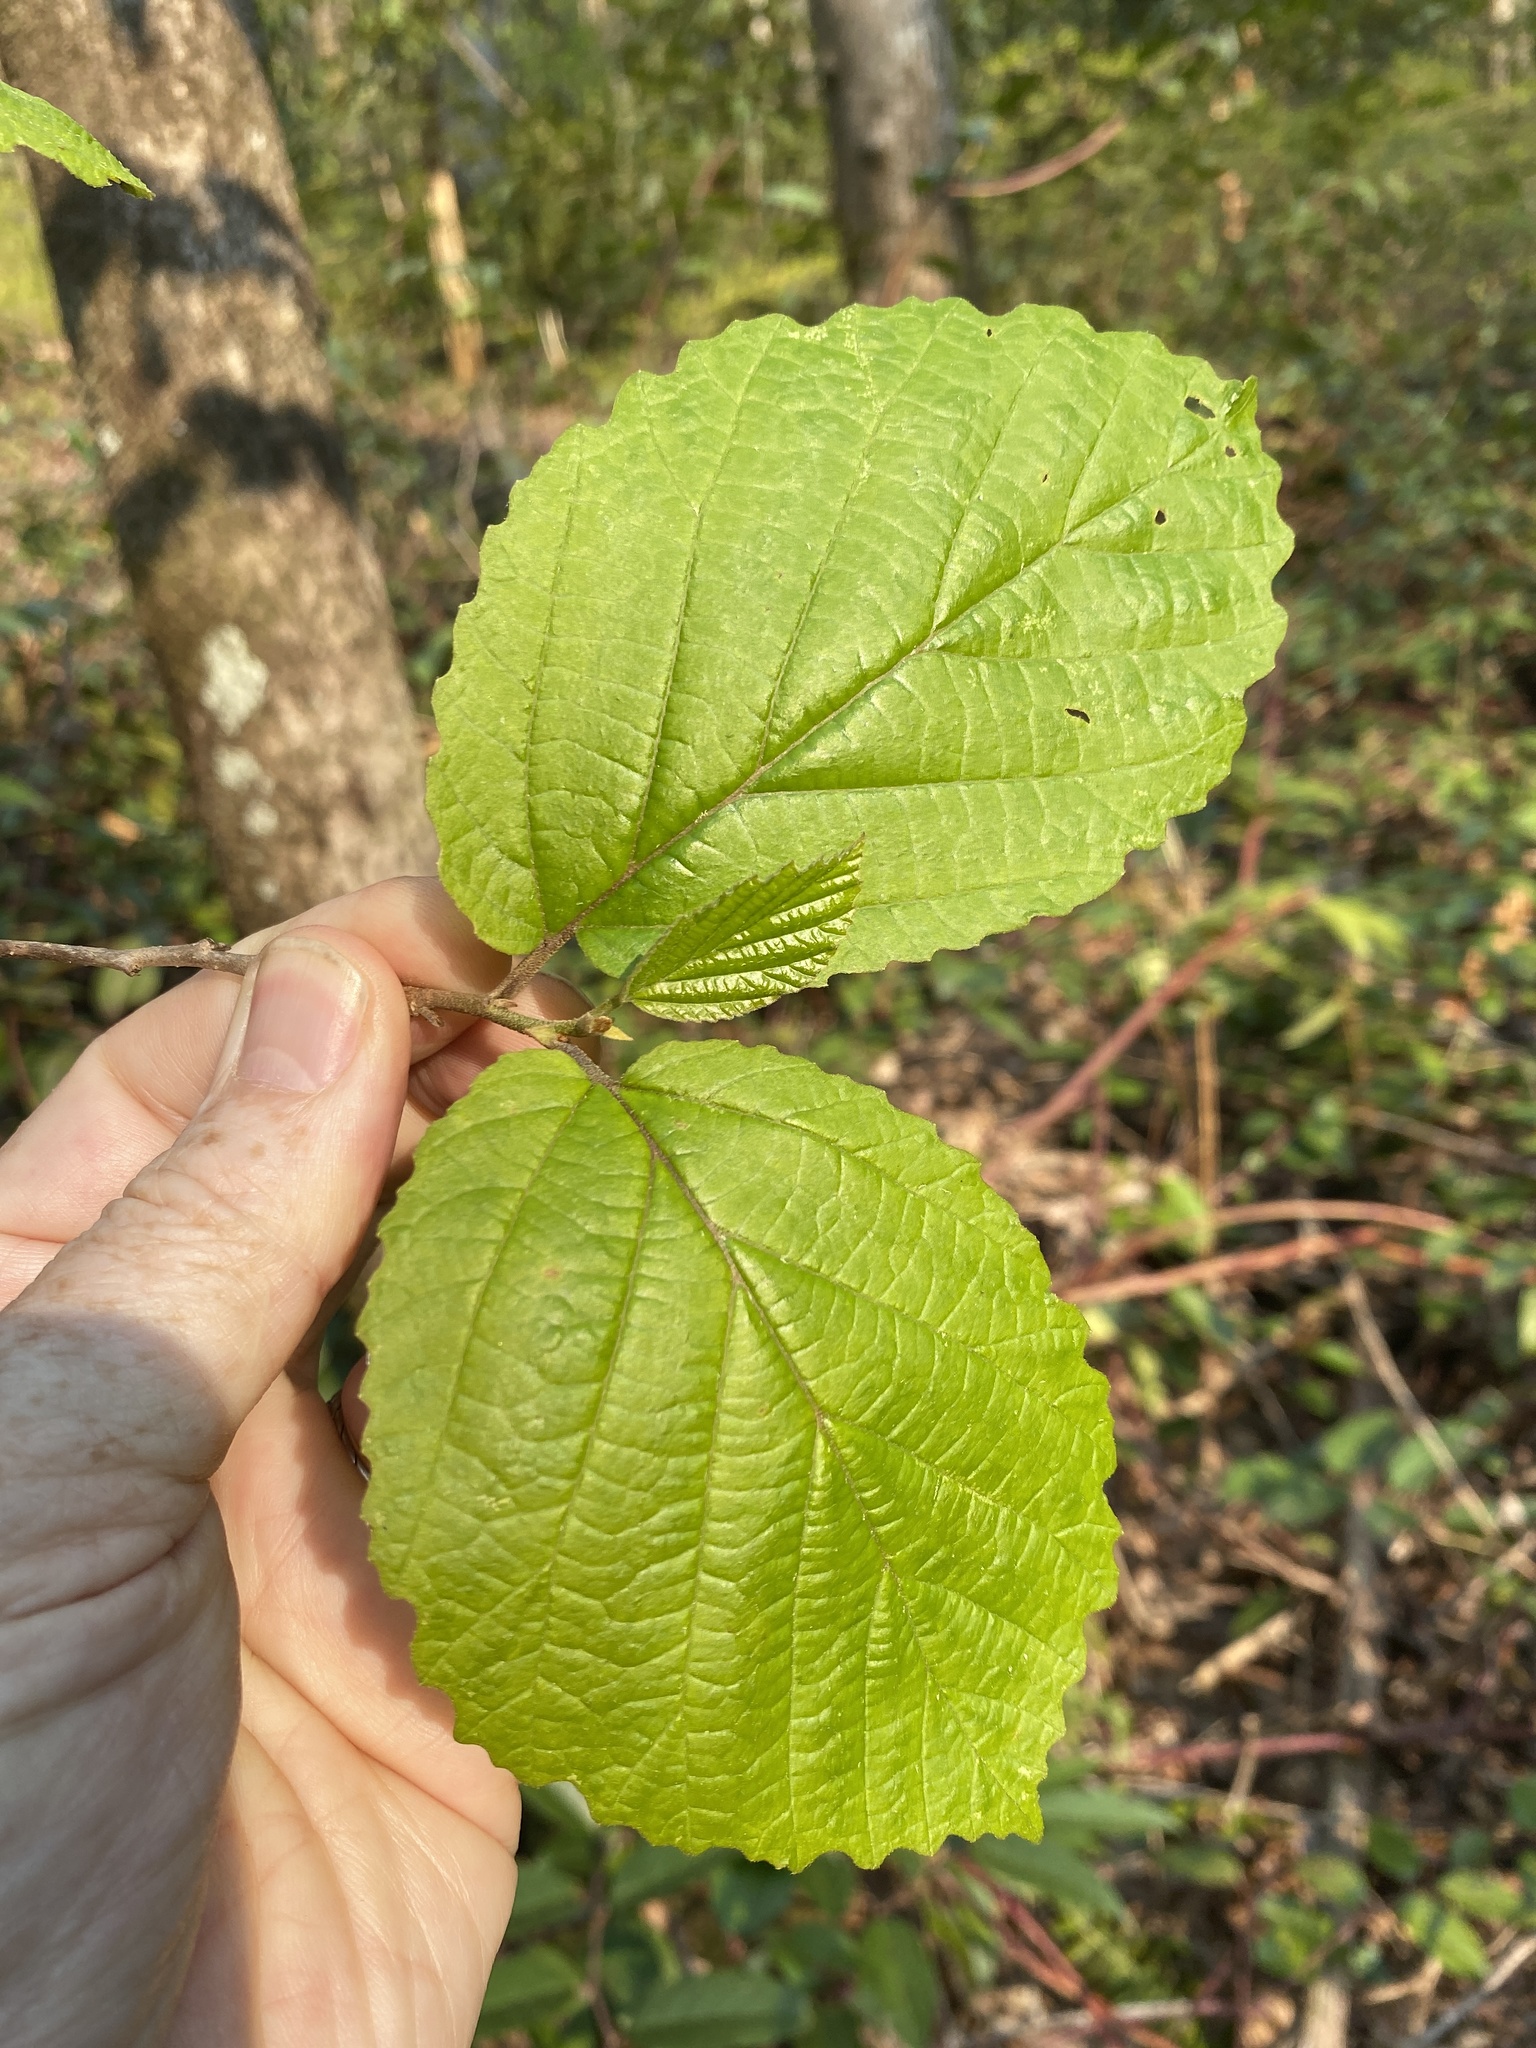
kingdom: Plantae
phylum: Tracheophyta
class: Magnoliopsida
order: Saxifragales
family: Hamamelidaceae
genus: Hamamelis
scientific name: Hamamelis virginiana
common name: Witch-hazel
